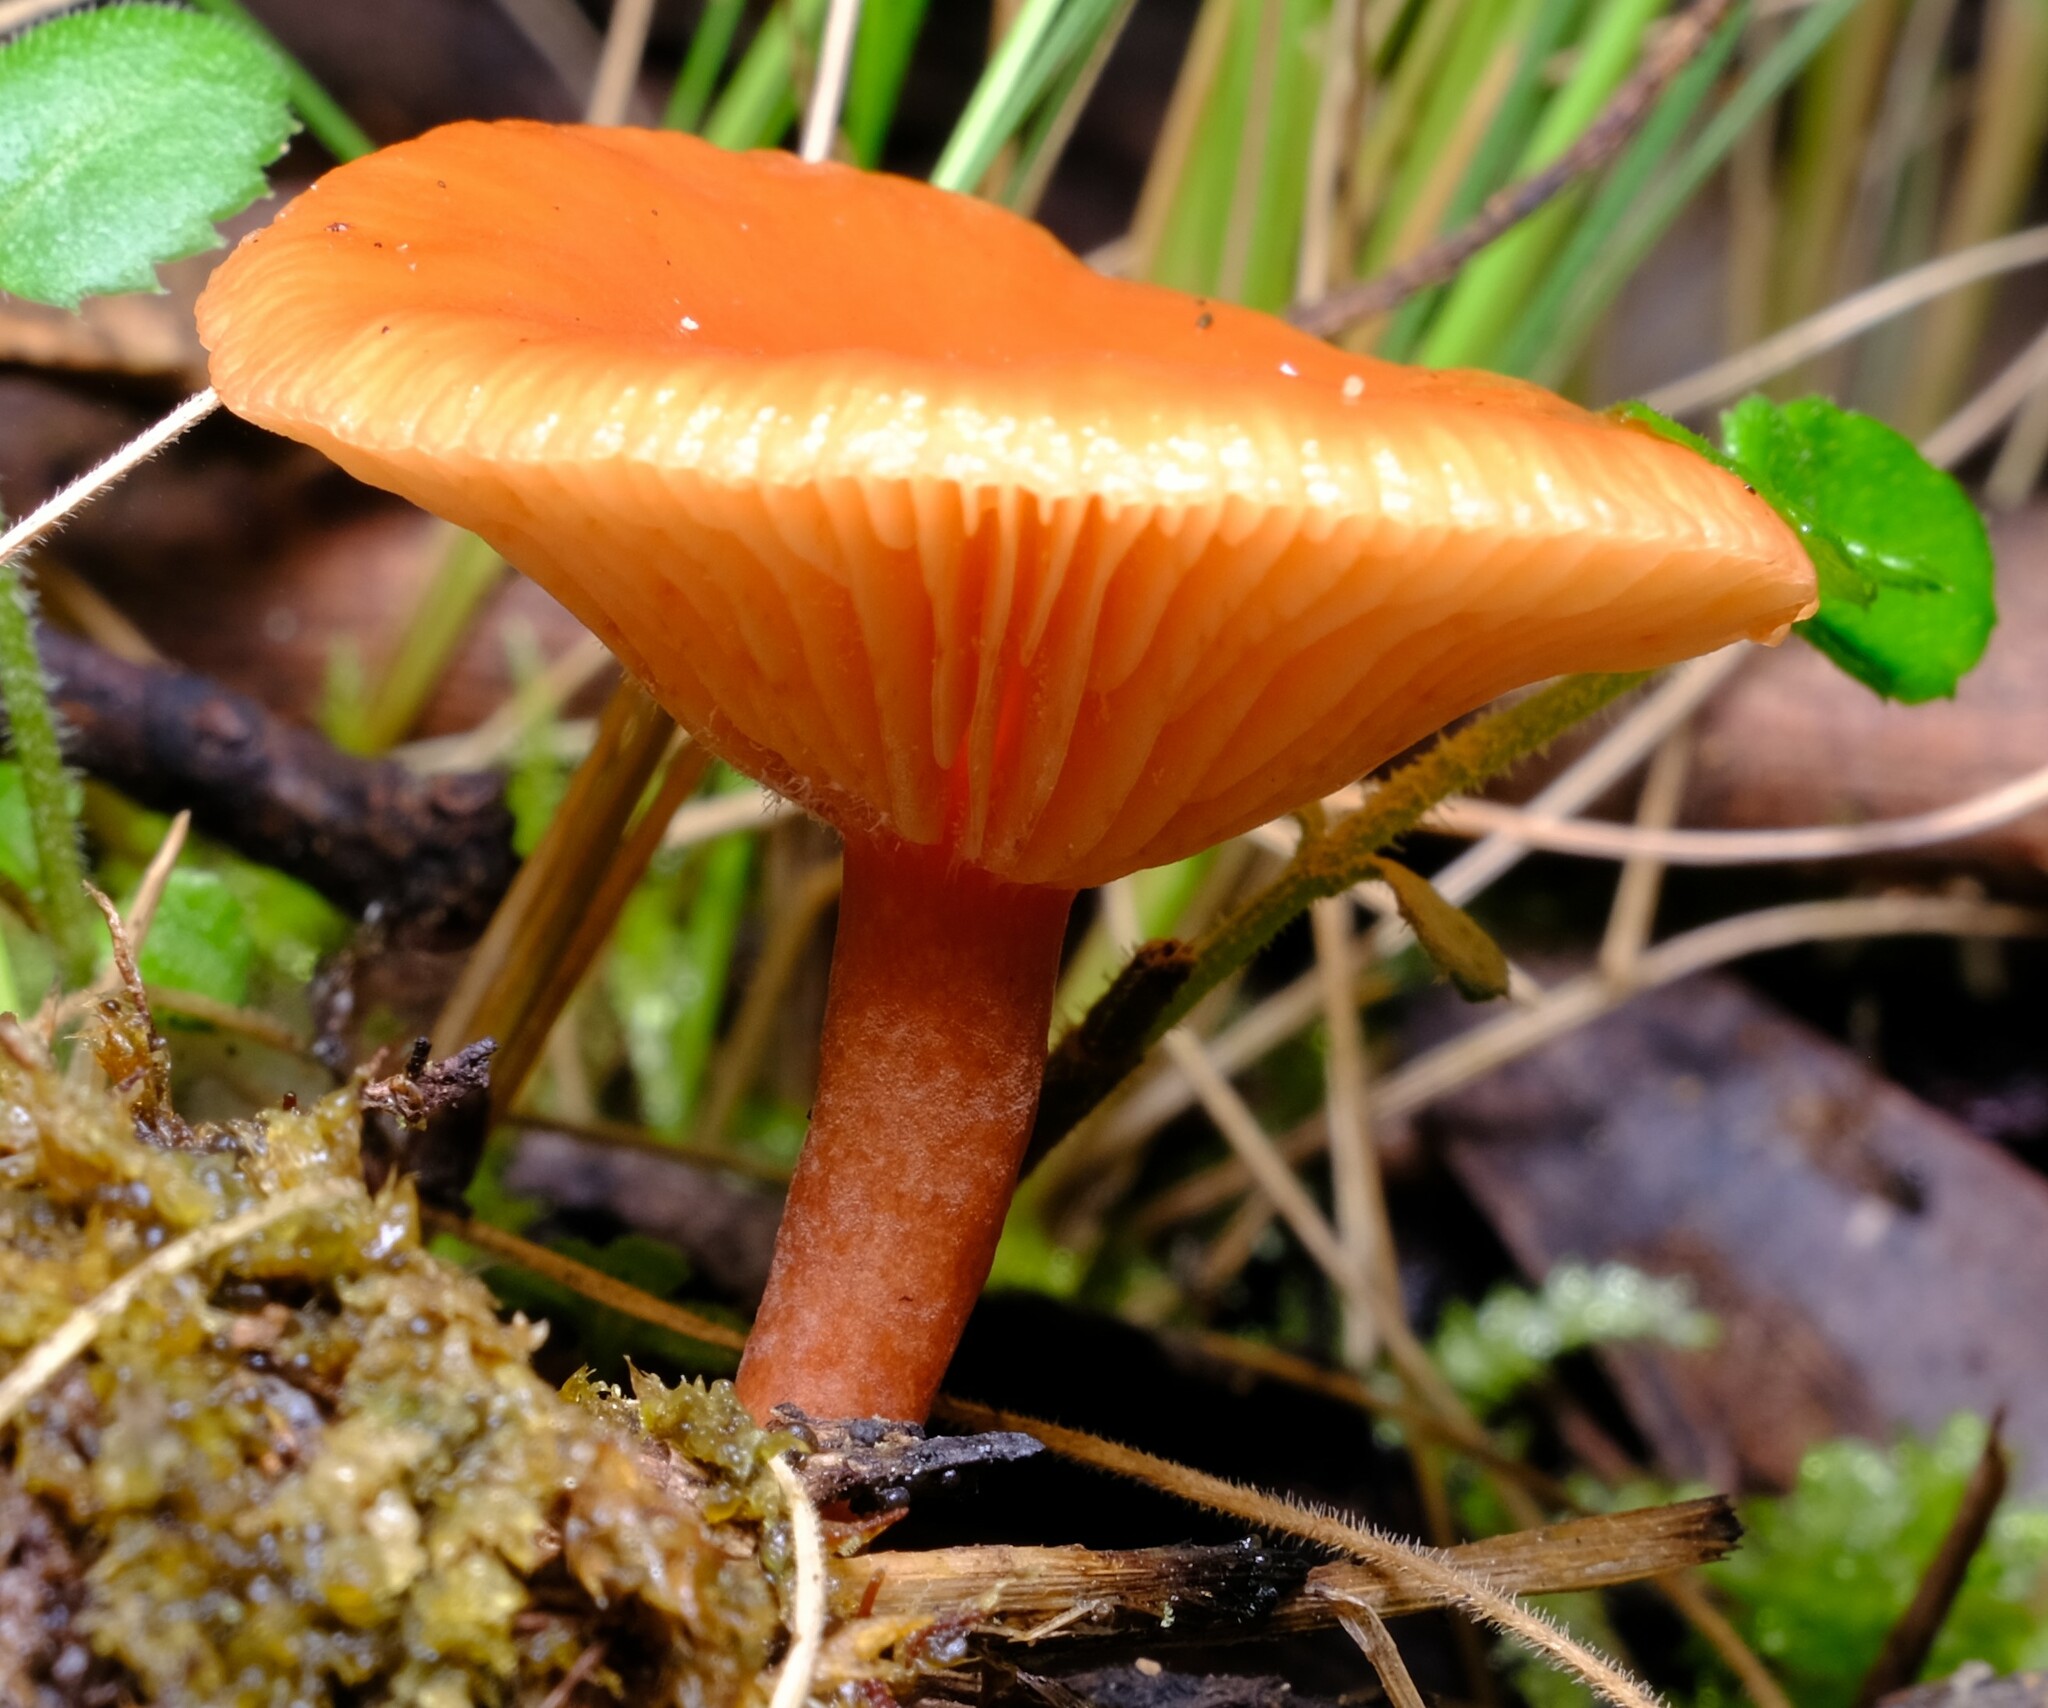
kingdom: Fungi
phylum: Basidiomycota
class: Agaricomycetes
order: Russulales
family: Russulaceae
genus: Lactarius
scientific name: Lactarius eucalypti
